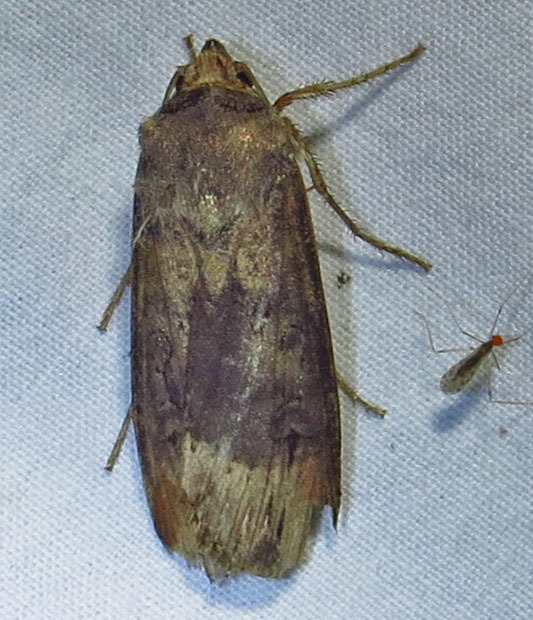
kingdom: Animalia
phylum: Arthropoda
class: Insecta
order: Lepidoptera
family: Noctuidae
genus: Agrotis
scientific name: Agrotis ipsilon
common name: Dark sword-grass
